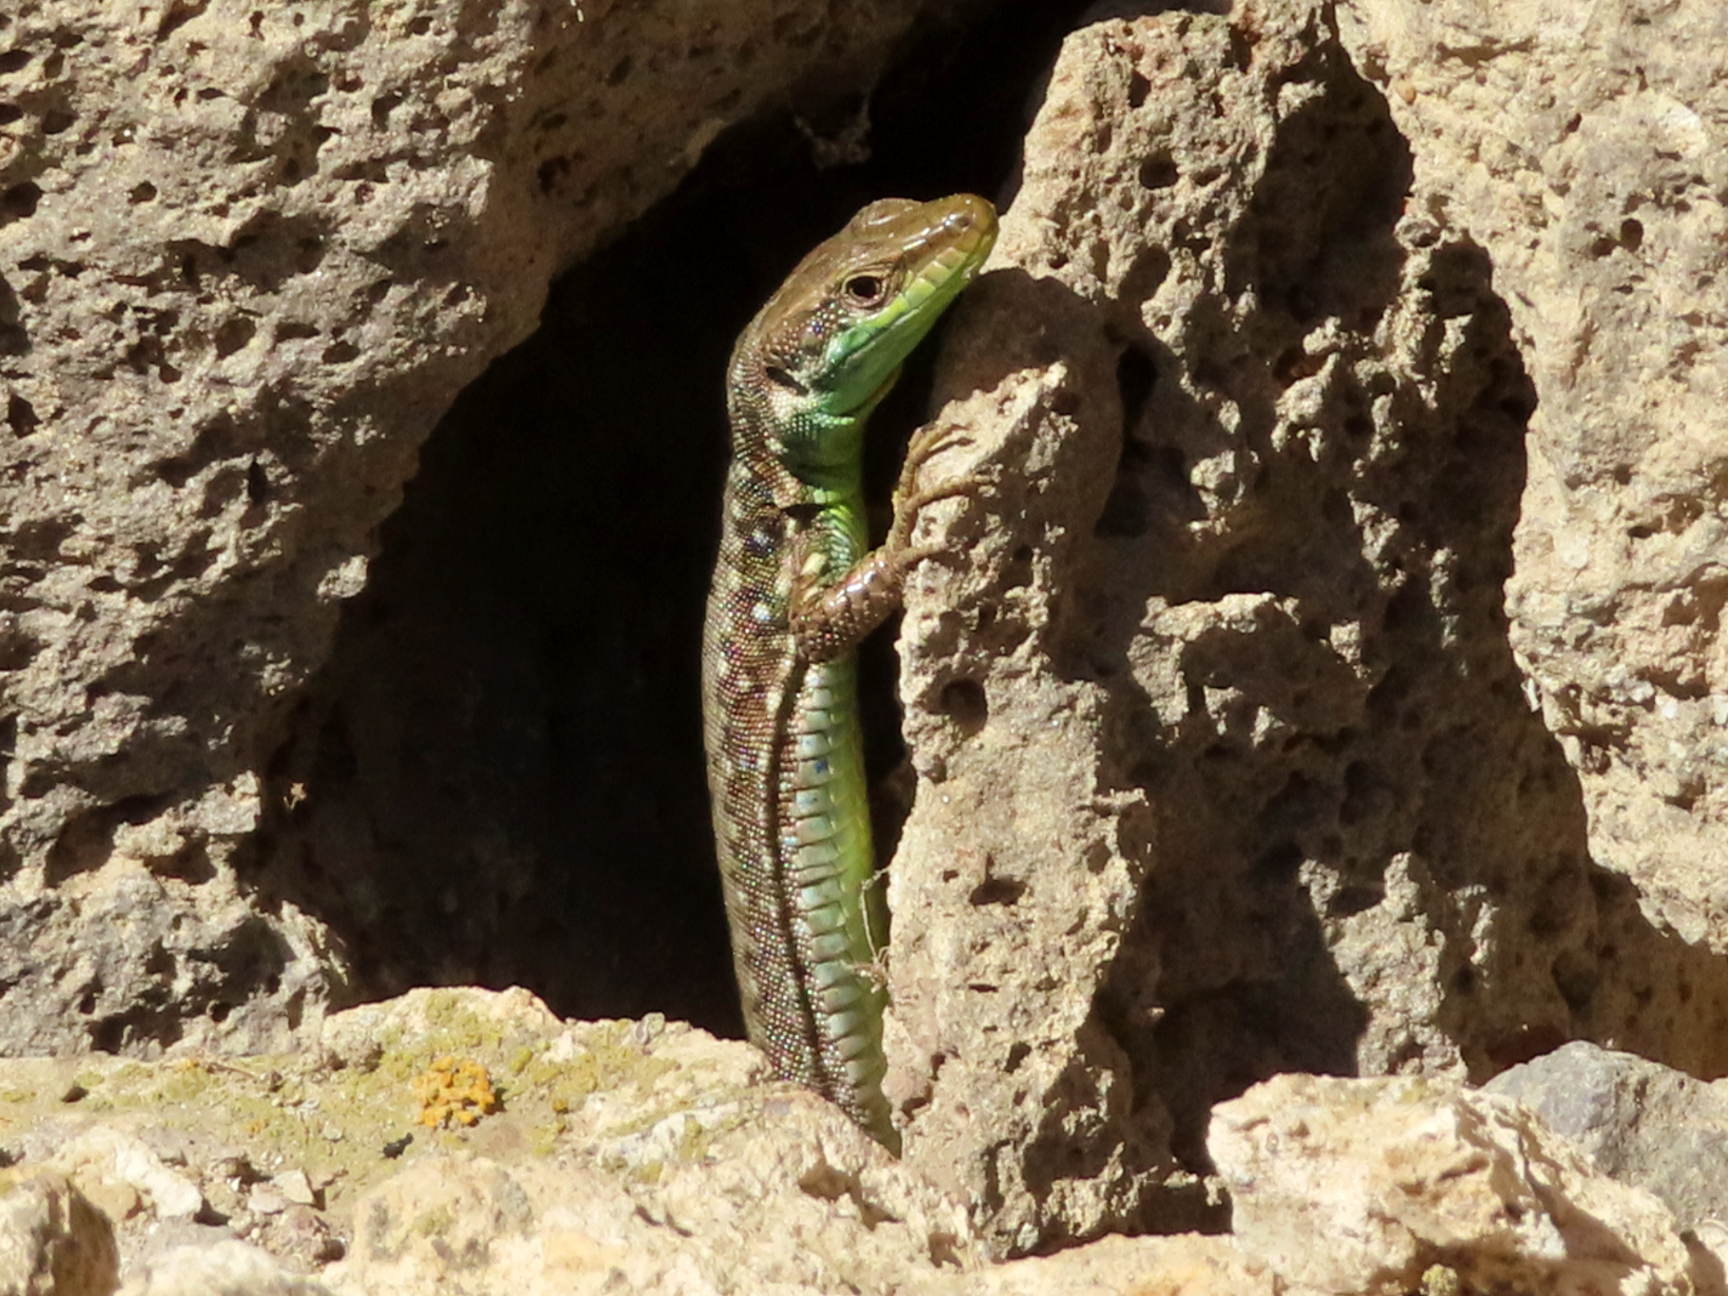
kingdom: Animalia
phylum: Chordata
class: Squamata
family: Lacertidae
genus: Darevskia
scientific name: Darevskia raddei
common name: Radde's lizard
